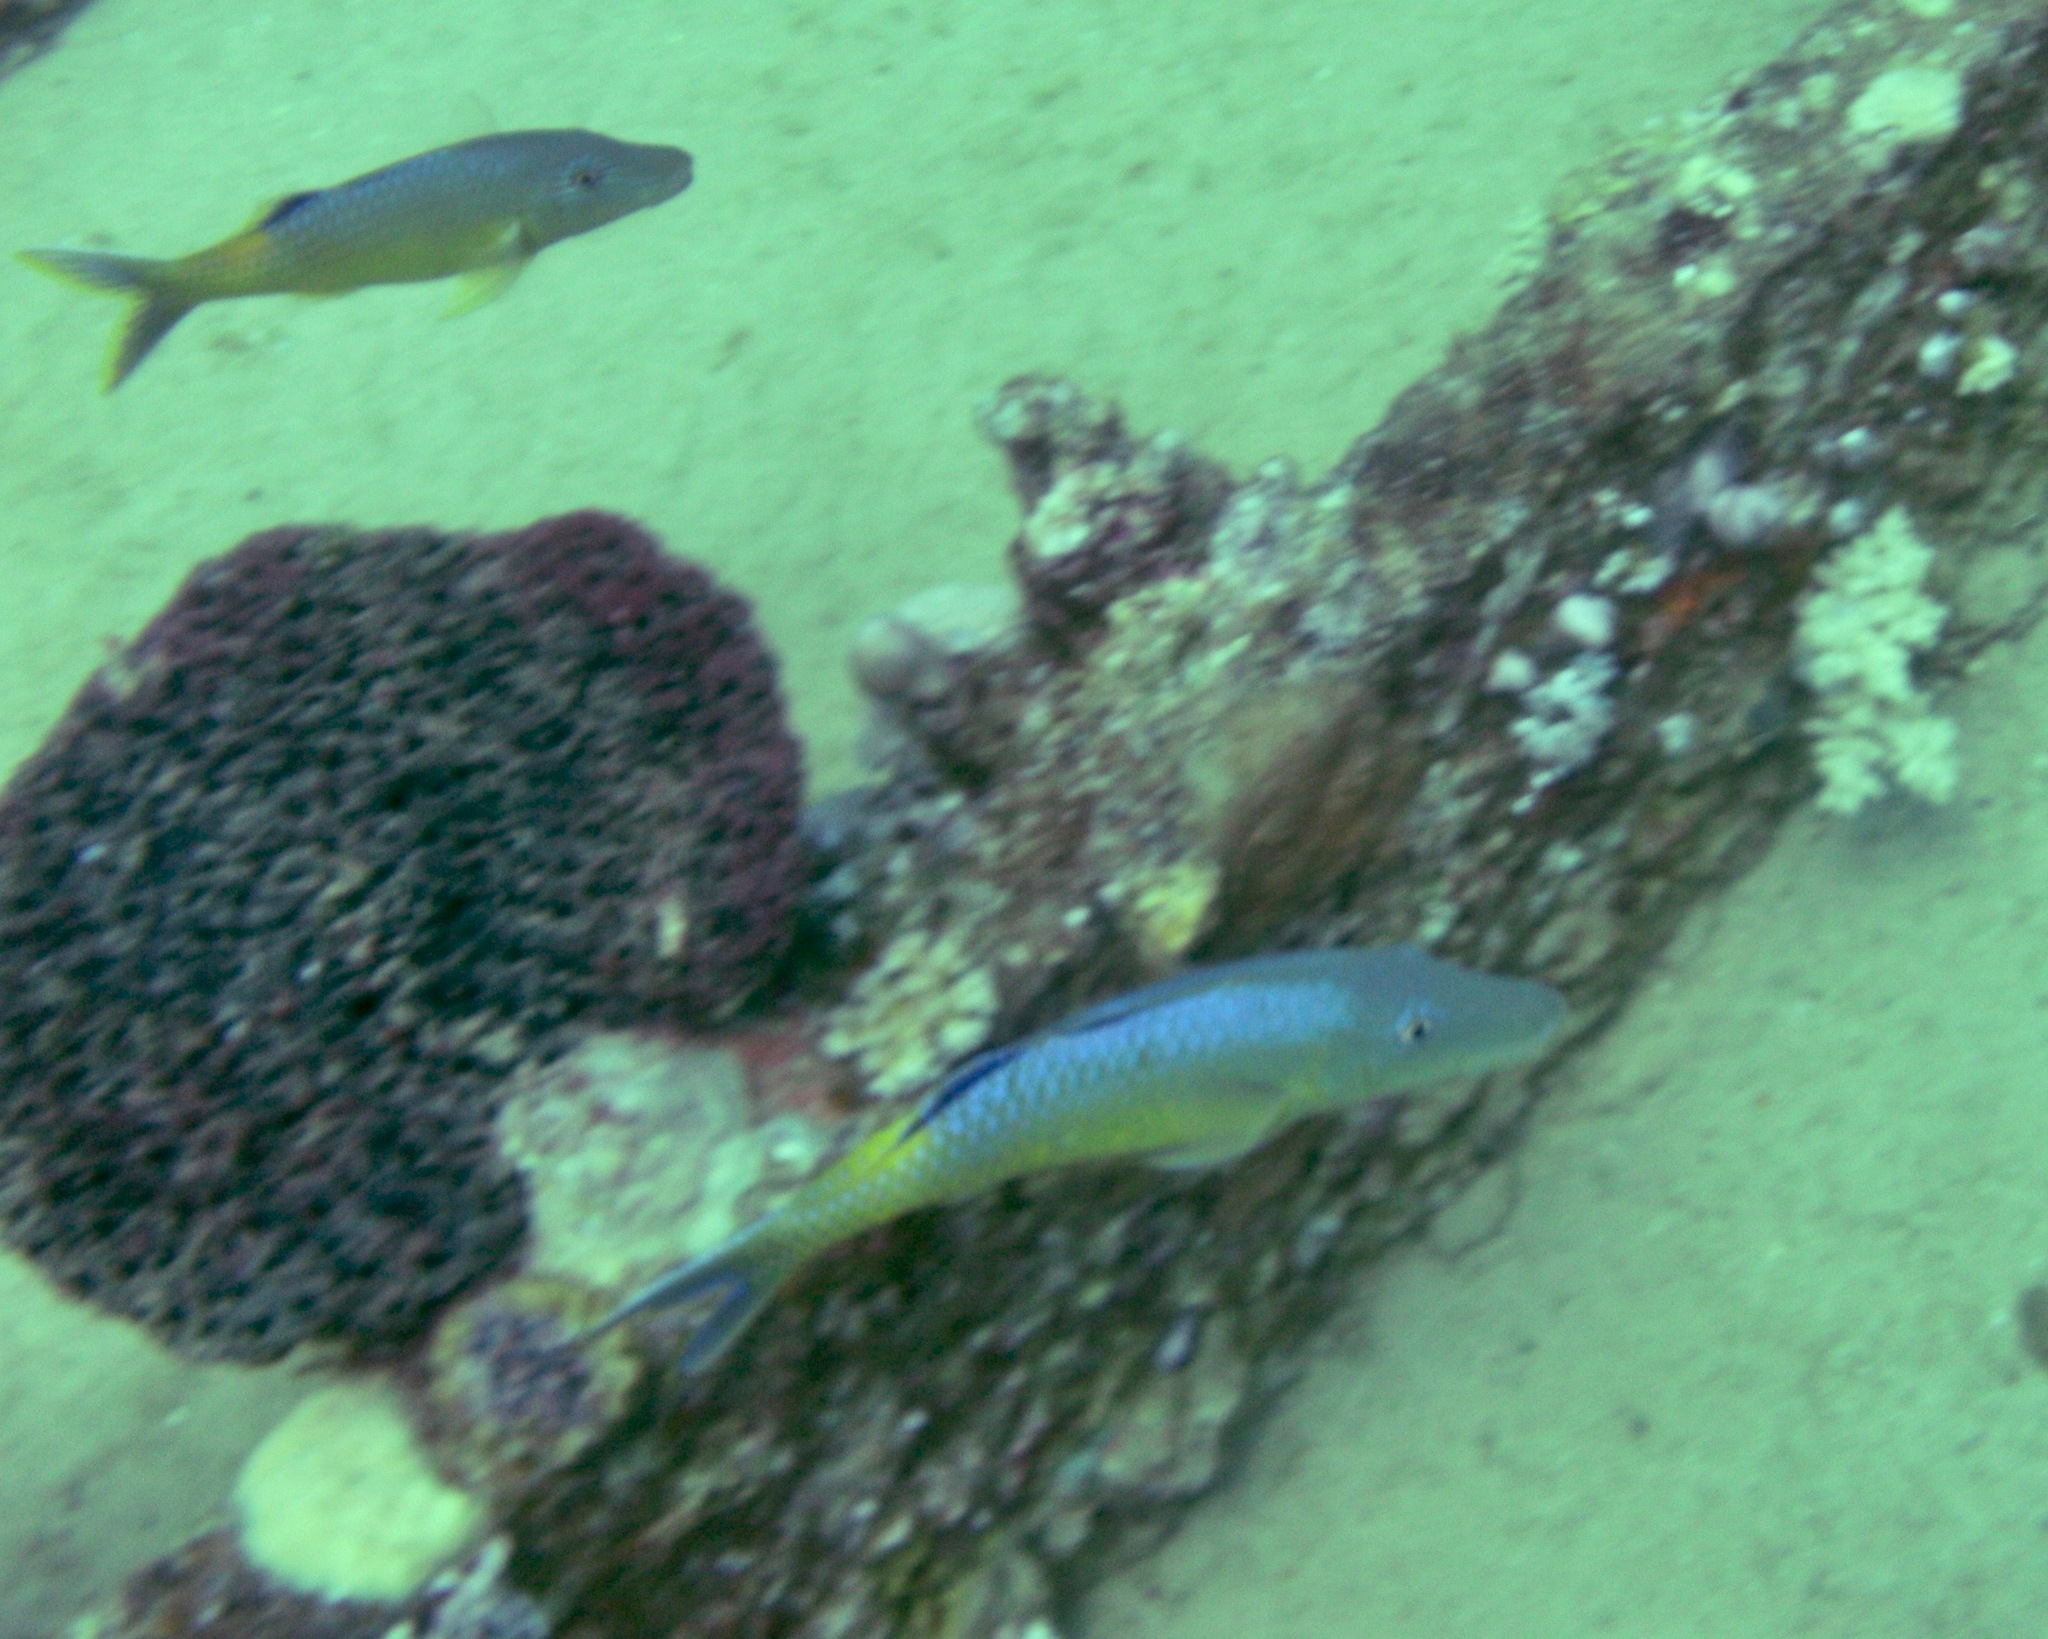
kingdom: Animalia
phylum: Chordata
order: Perciformes
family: Mullidae
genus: Parupeneus
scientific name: Parupeneus cyclostomus
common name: Goldsaddle goatfish
